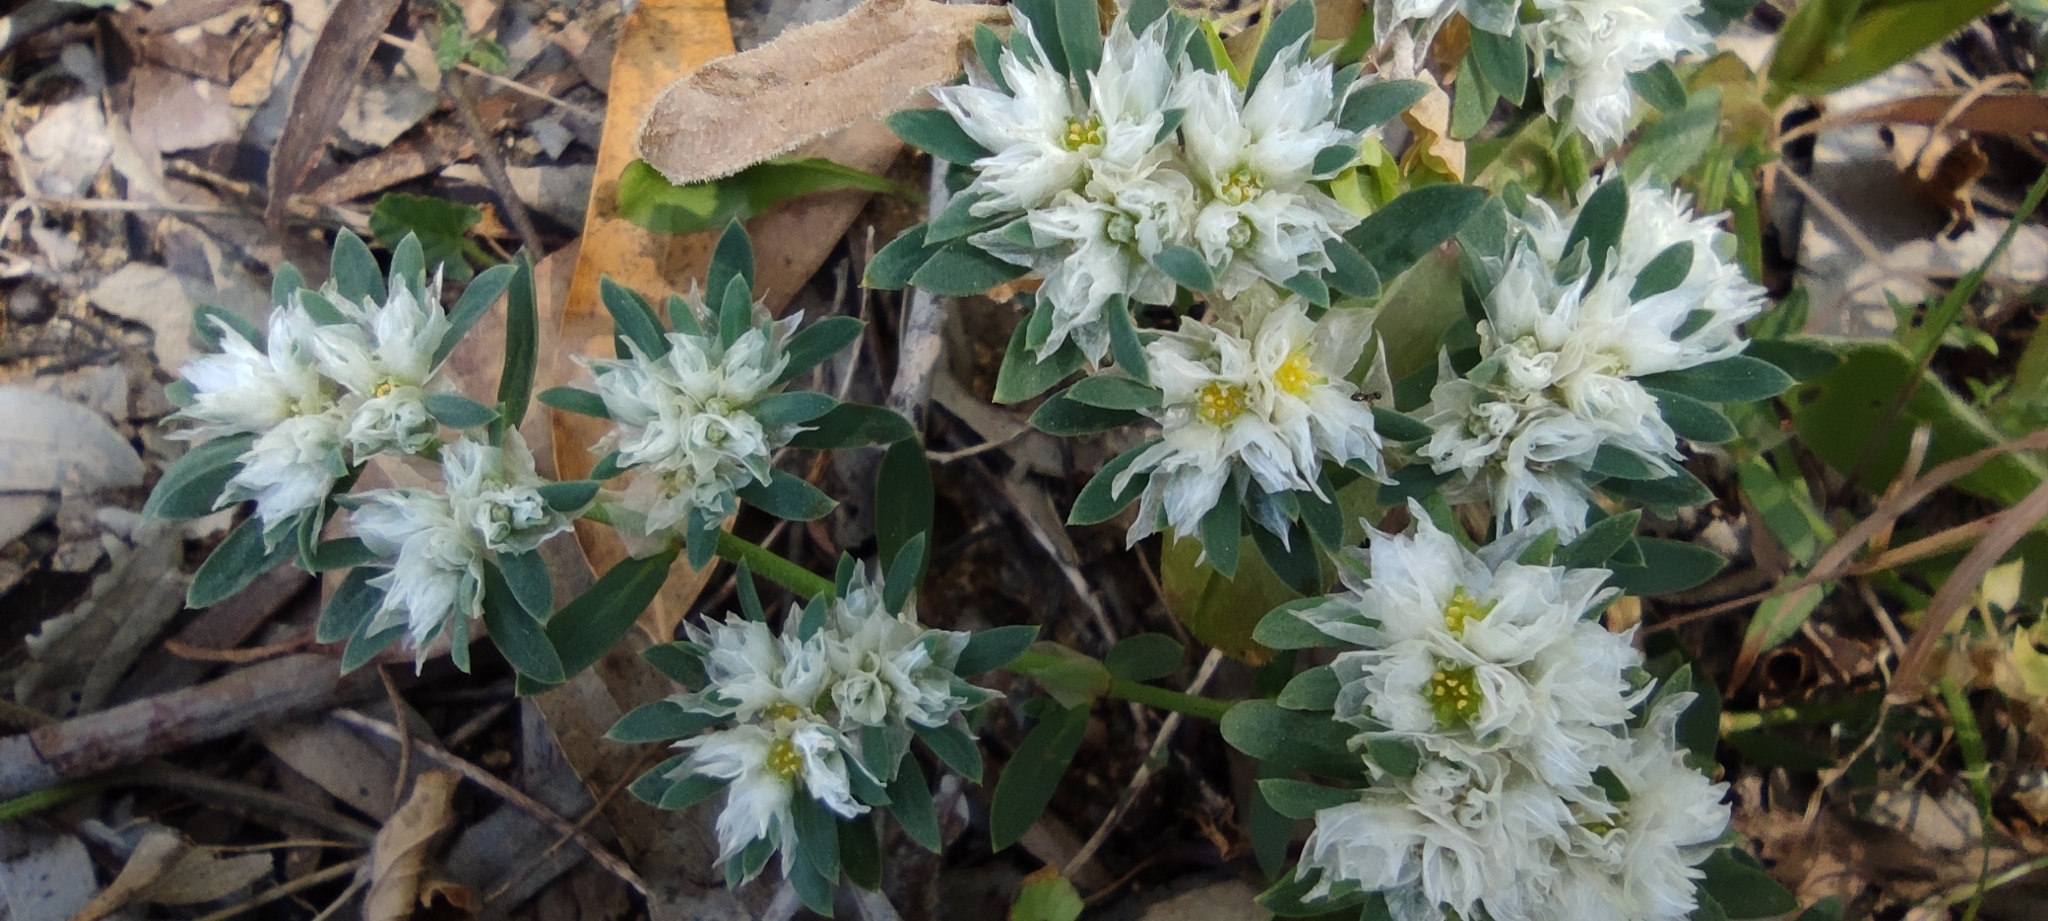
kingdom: Plantae
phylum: Tracheophyta
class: Magnoliopsida
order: Caryophyllales
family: Caryophyllaceae
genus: Paronychia
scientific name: Paronychia argentea
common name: Silver nailroot
